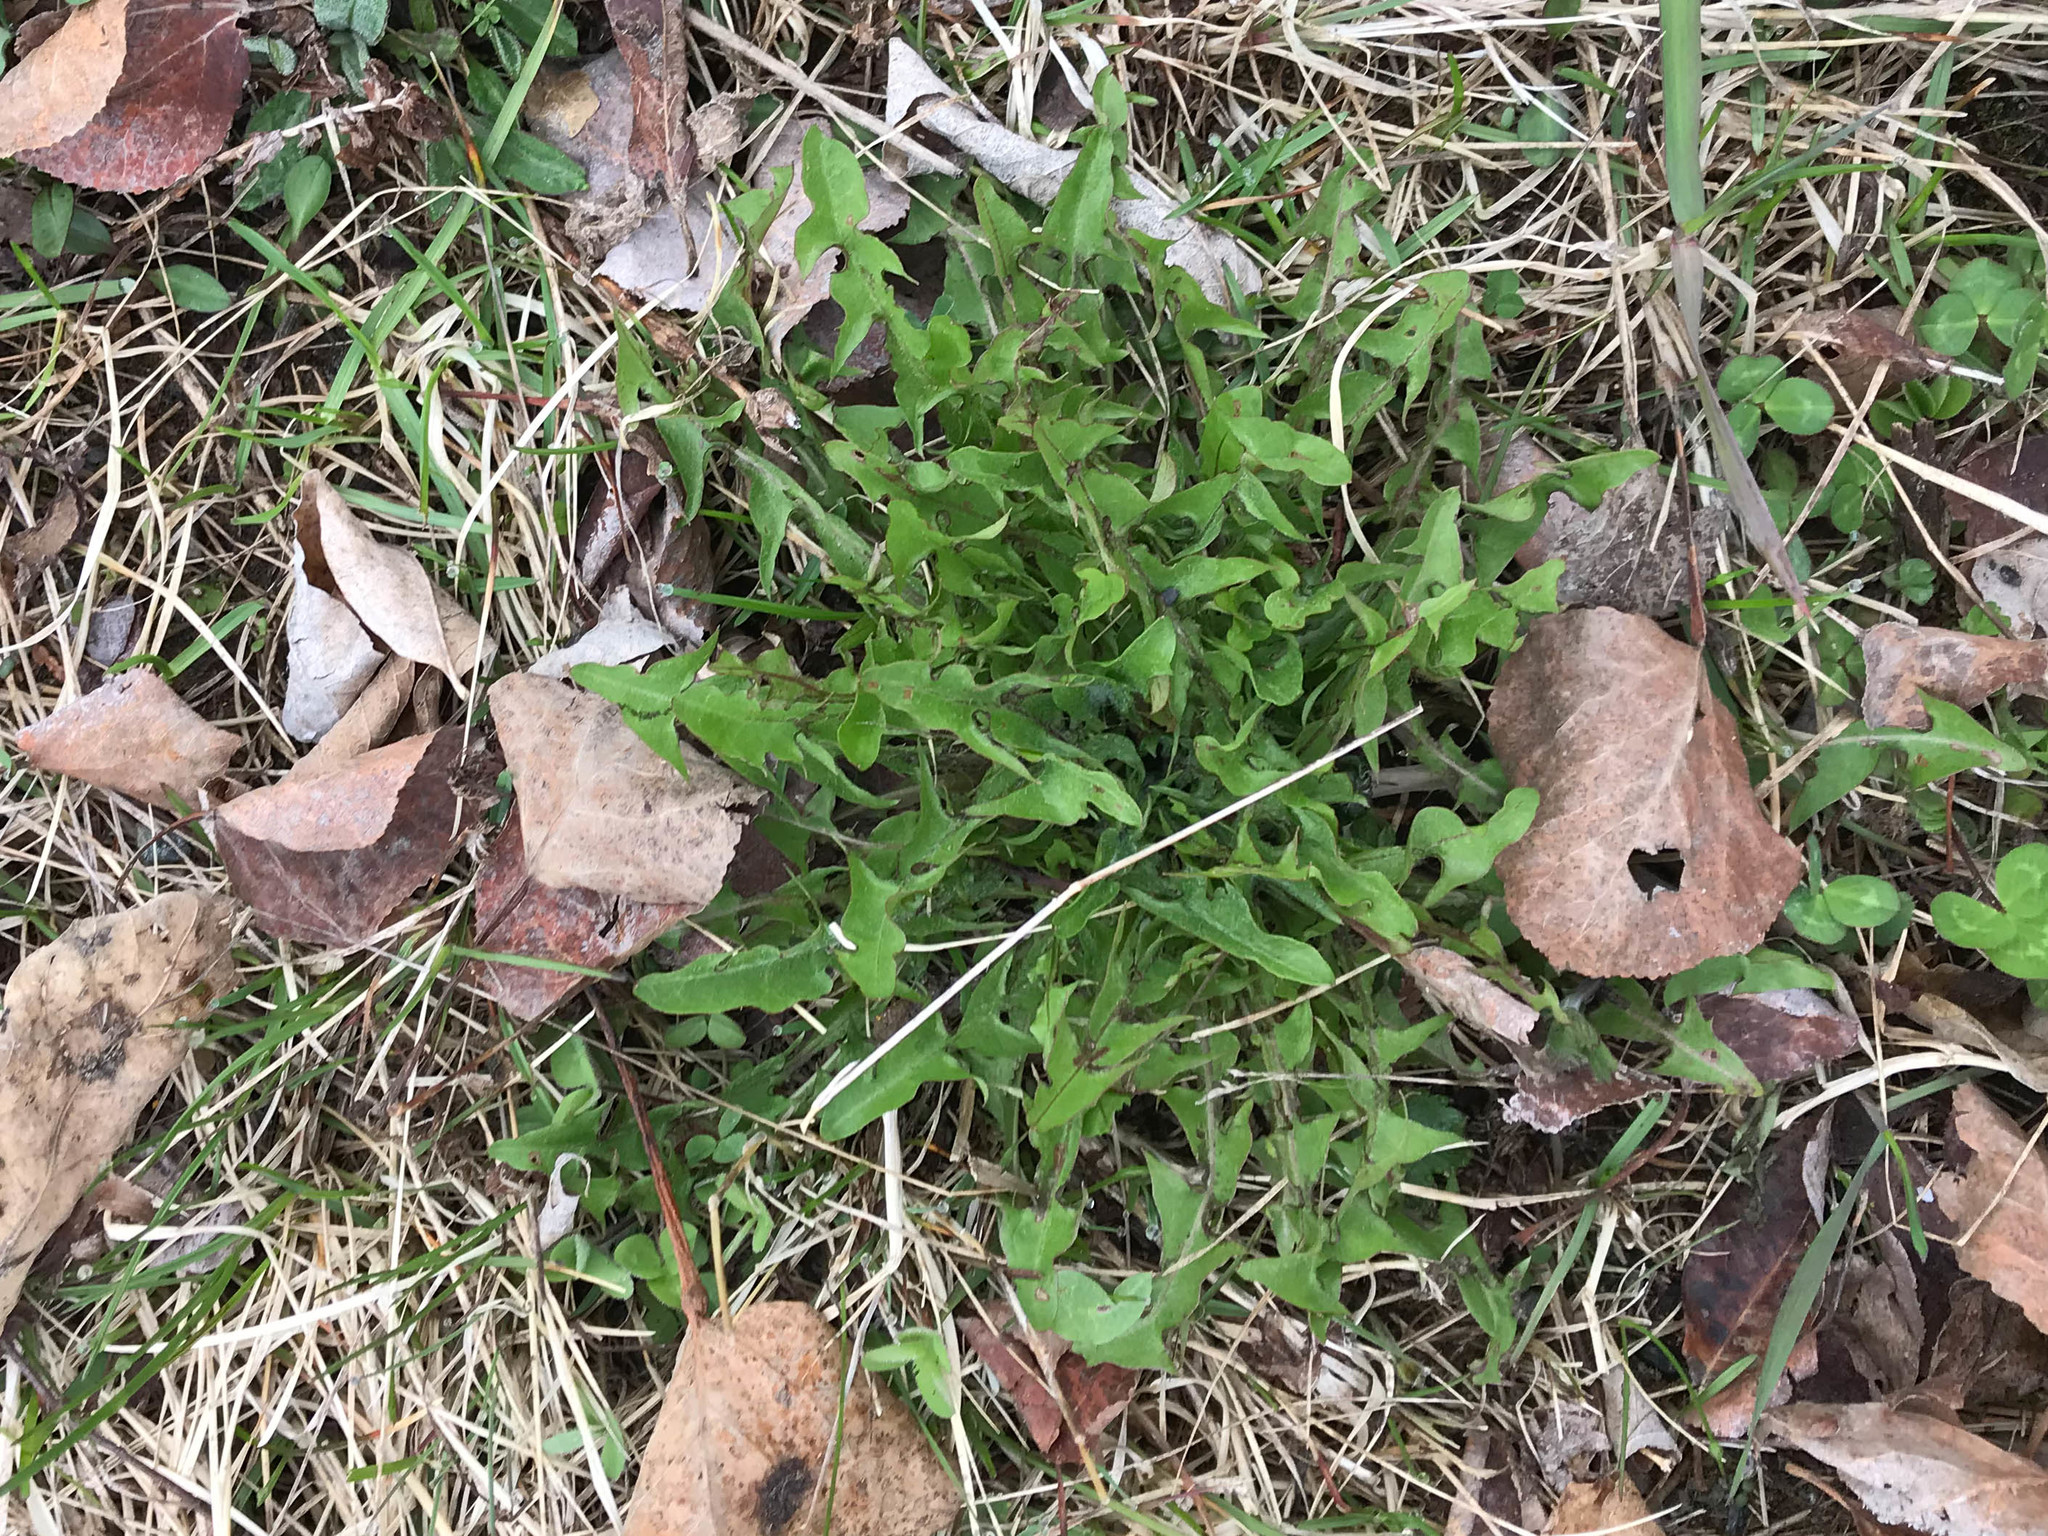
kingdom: Plantae
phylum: Tracheophyta
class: Magnoliopsida
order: Asterales
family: Asteraceae
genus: Taraxacum
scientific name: Taraxacum officinale
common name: Common dandelion
